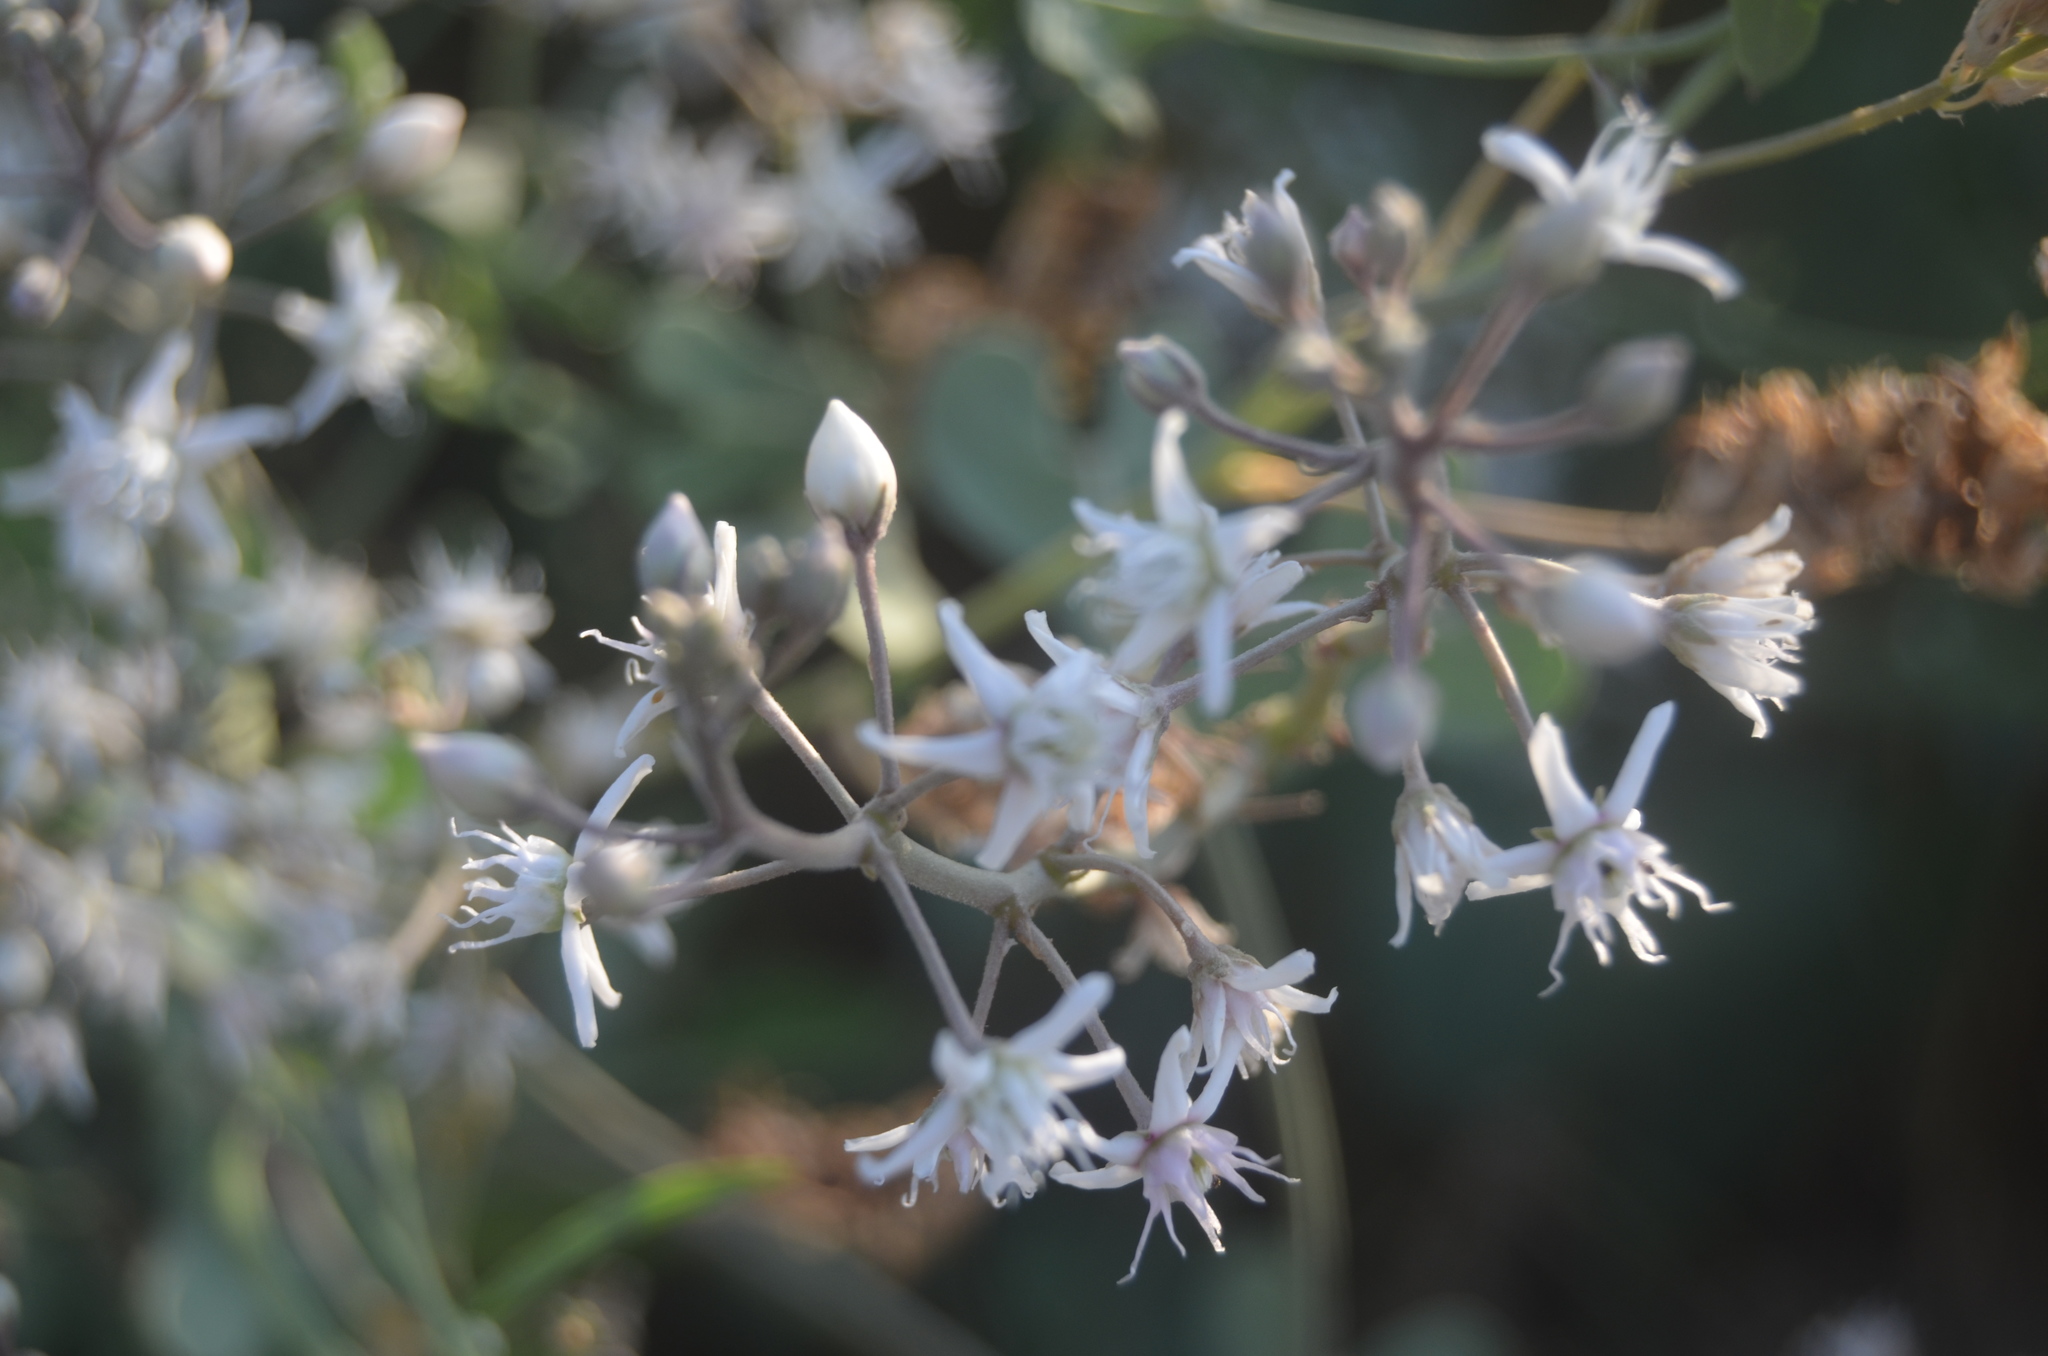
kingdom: Plantae
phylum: Tracheophyta
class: Magnoliopsida
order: Gentianales
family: Apocynaceae
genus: Cynanchum
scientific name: Cynanchum acutum
